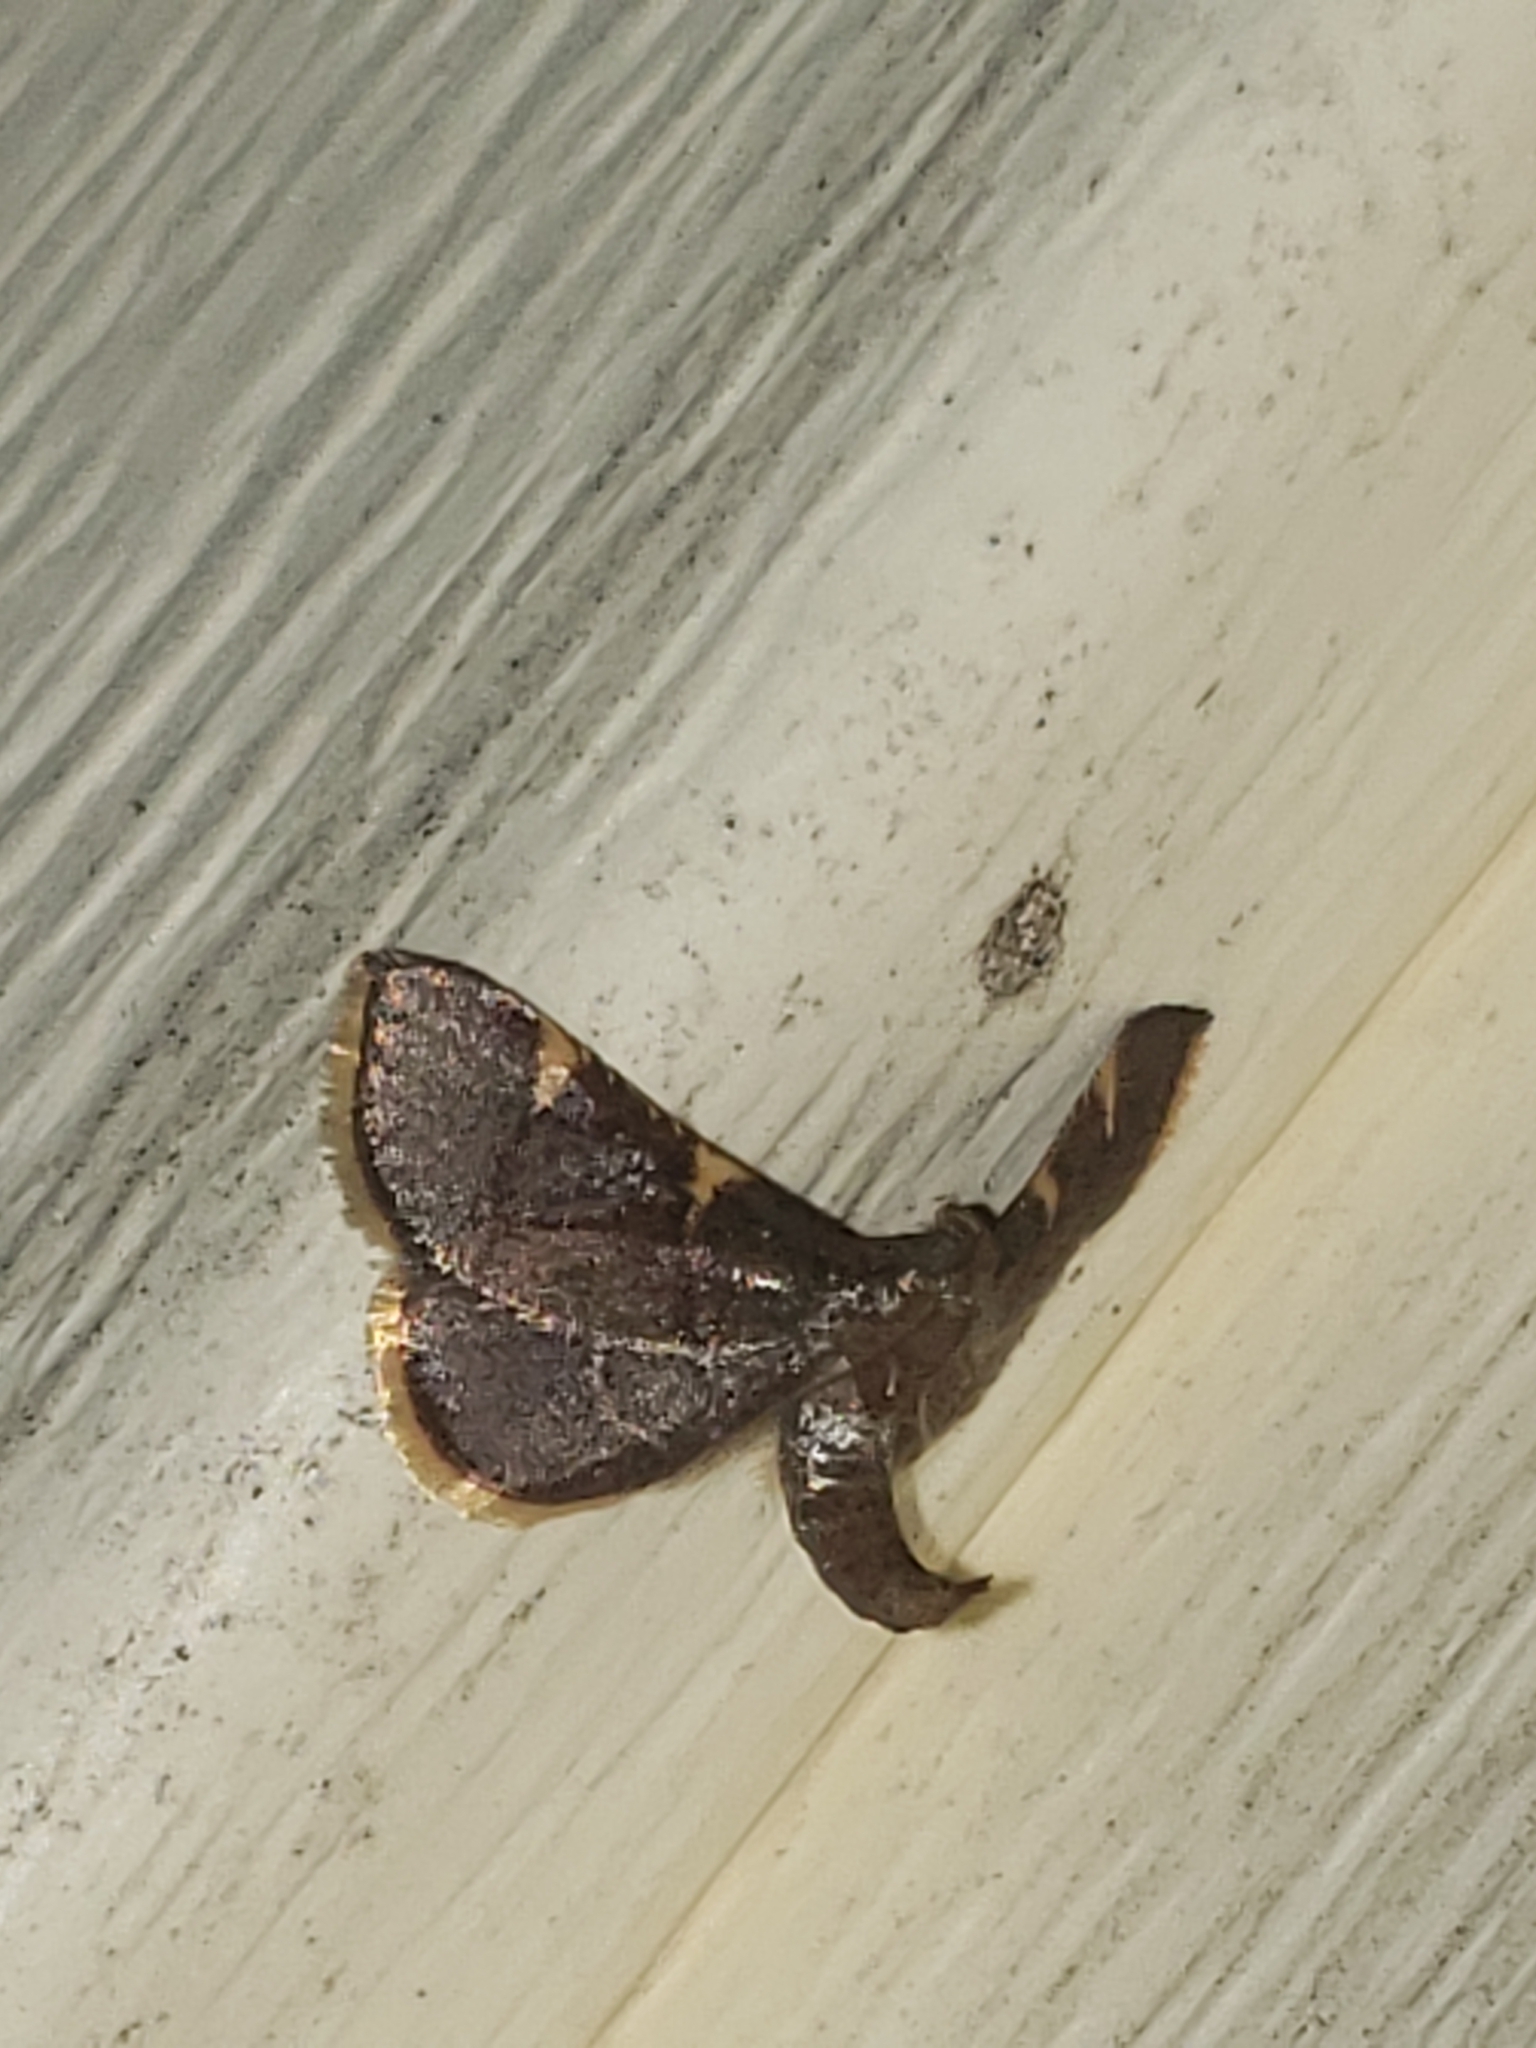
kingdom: Animalia
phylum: Arthropoda
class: Insecta
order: Lepidoptera
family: Pyralidae
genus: Hypsopygia
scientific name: Hypsopygia olinalis
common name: Yellow-fringed dolichomia moth
